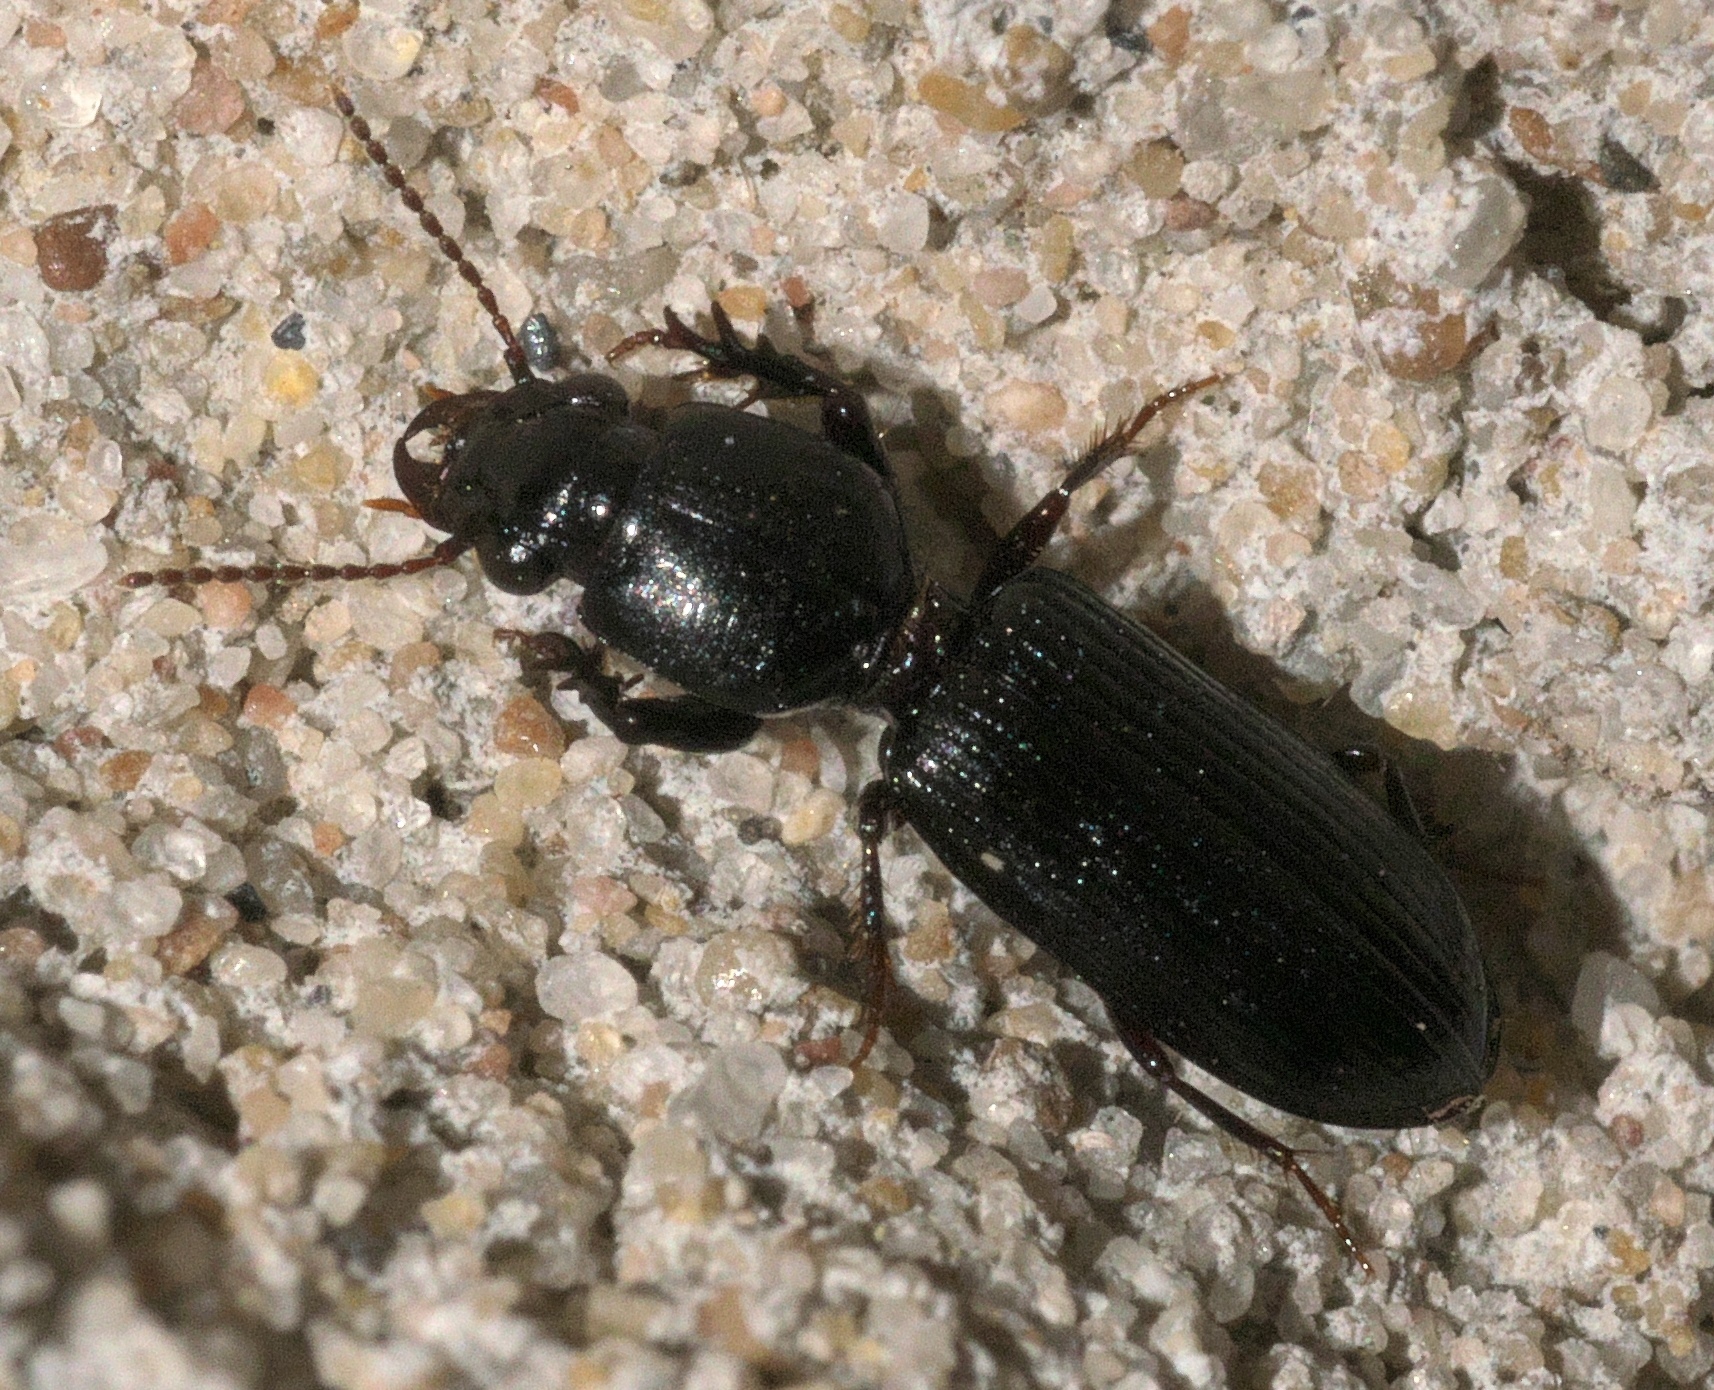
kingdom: Animalia
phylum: Arthropoda
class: Insecta
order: Coleoptera
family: Carabidae
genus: Semiclivina
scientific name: Semiclivina dentipes
